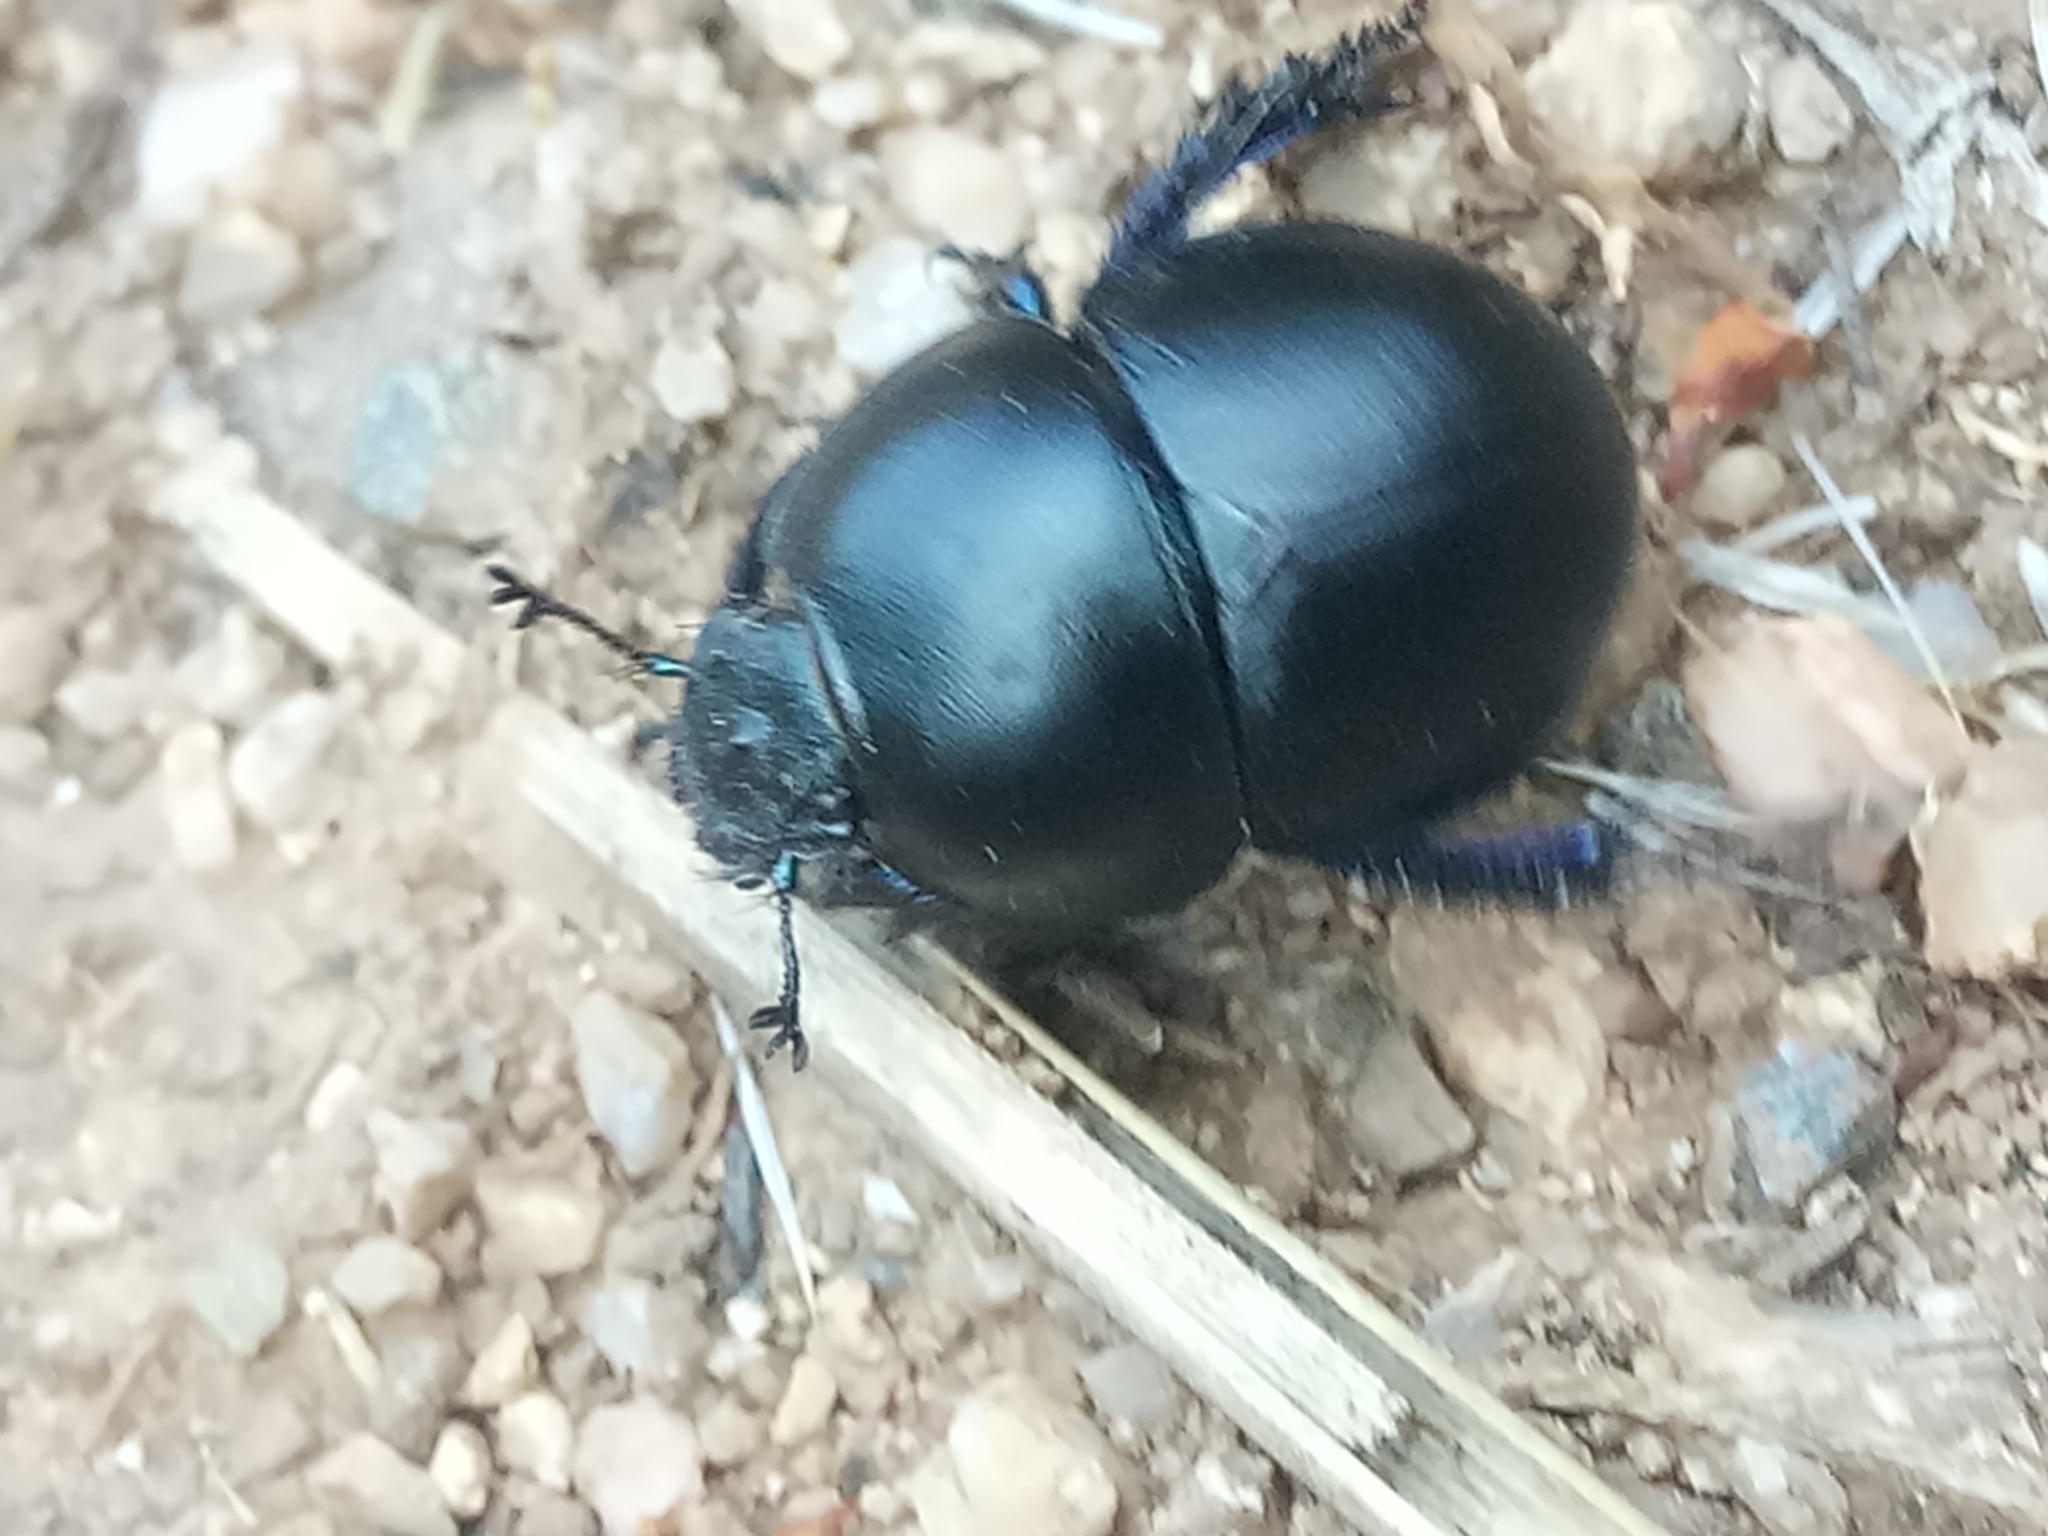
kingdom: Animalia
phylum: Arthropoda
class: Insecta
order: Coleoptera
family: Geotrupidae
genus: Thorectes
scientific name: Thorectes
